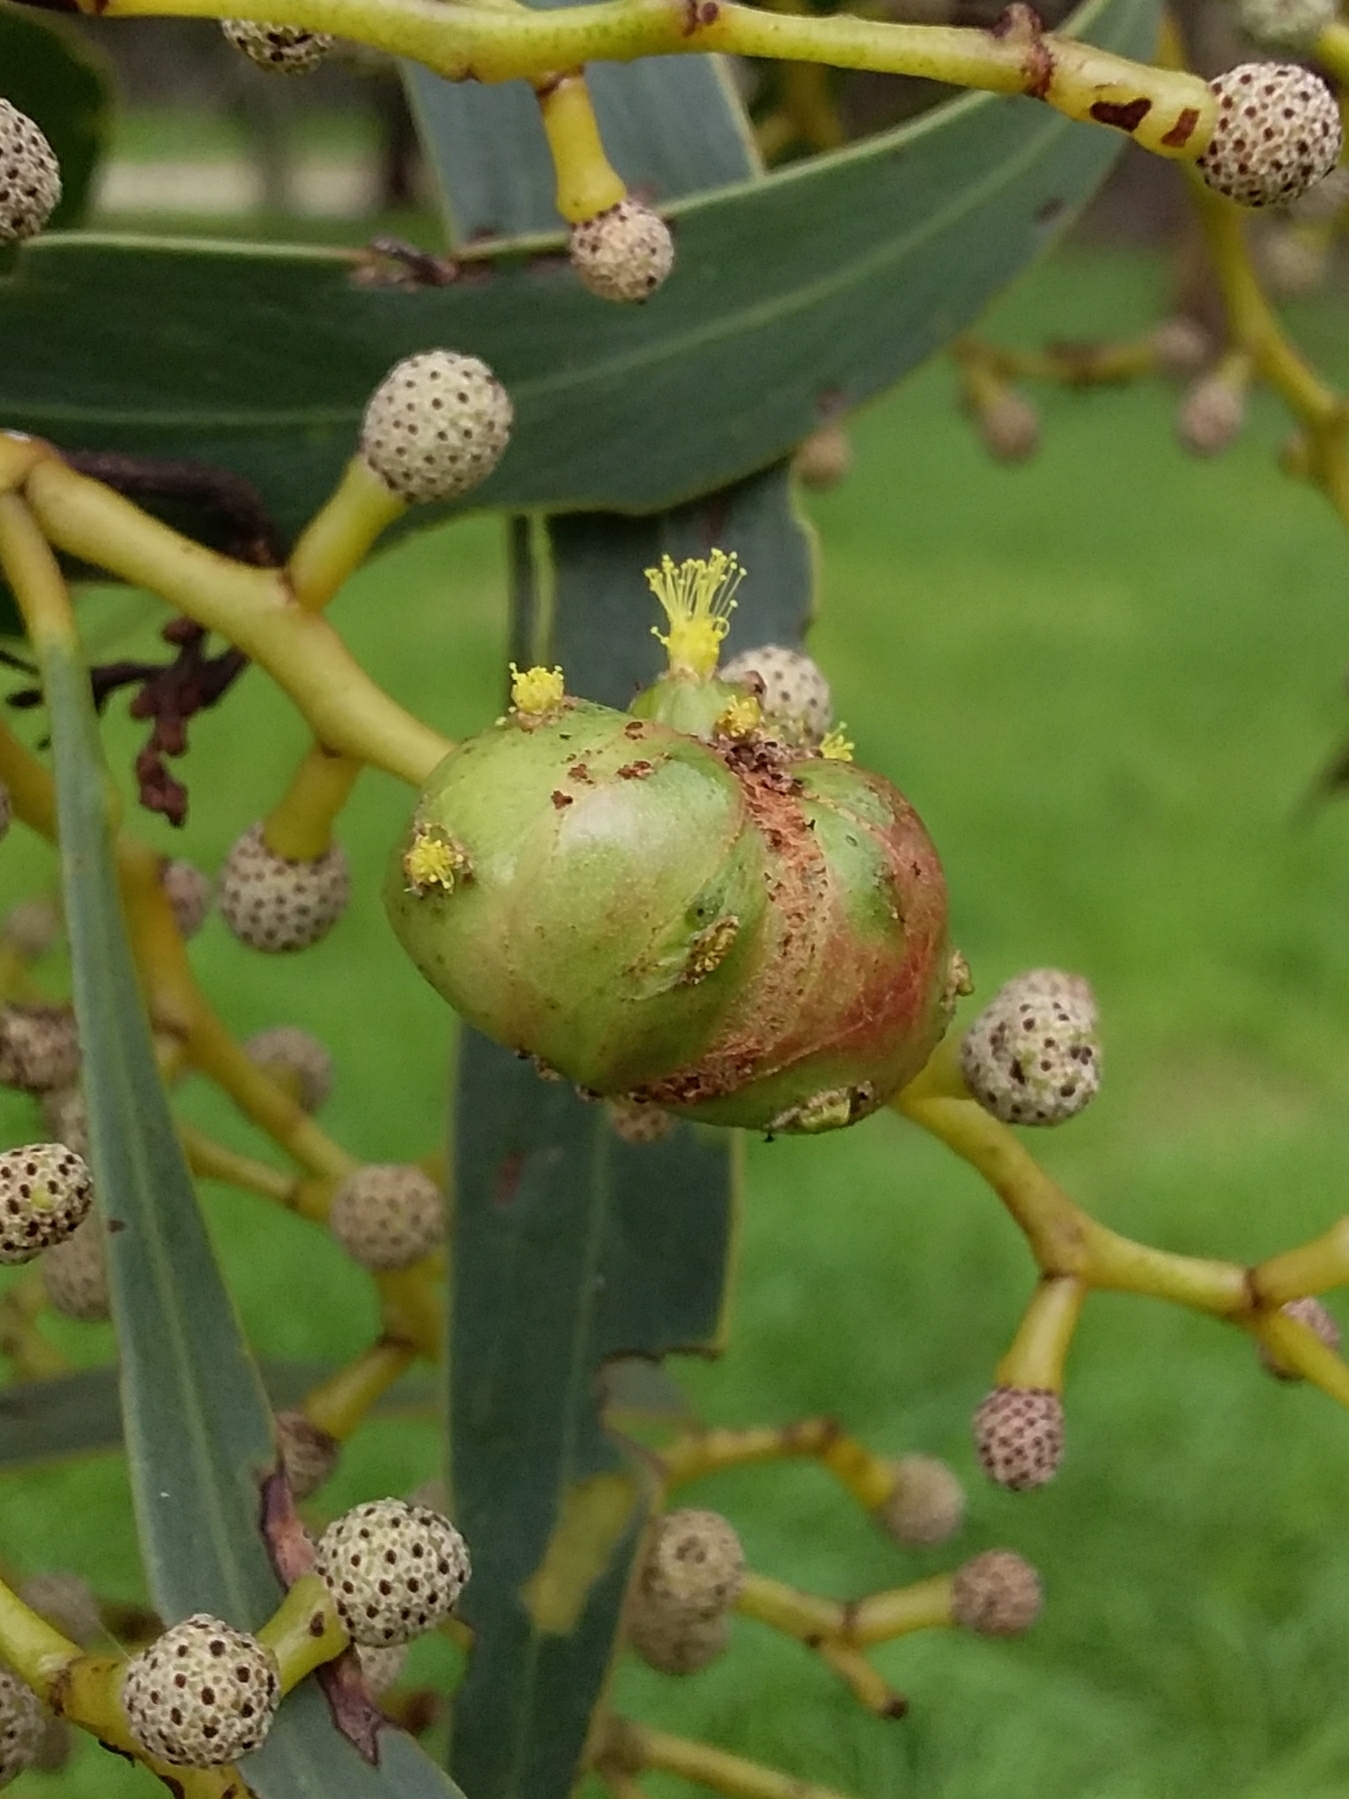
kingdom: Animalia
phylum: Arthropoda
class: Insecta
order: Hymenoptera
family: Pteromalidae
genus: Trichilogaster
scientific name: Trichilogaster signiventris
